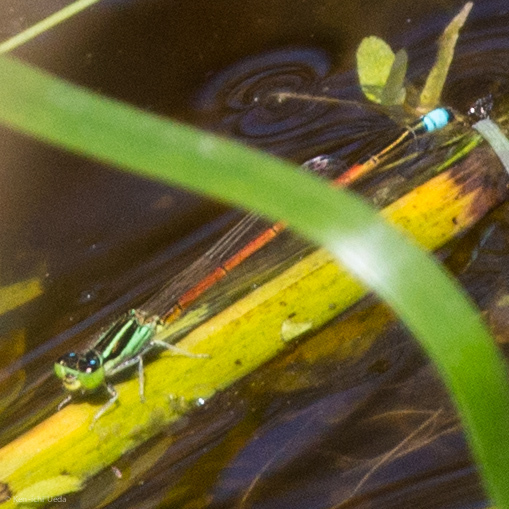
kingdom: Animalia
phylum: Arthropoda
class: Insecta
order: Odonata
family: Coenagrionidae
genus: Ischnura
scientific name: Ischnura aurora
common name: Gossamer damselfly
